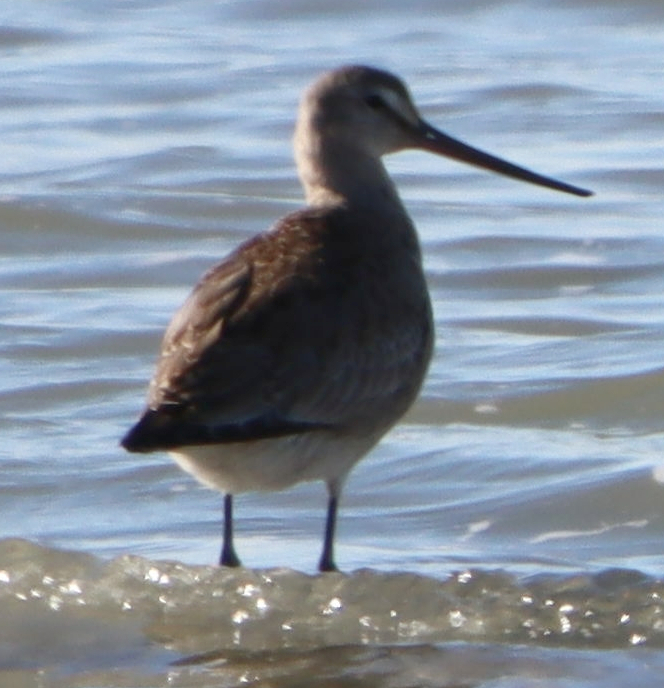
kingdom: Animalia
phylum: Chordata
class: Aves
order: Charadriiformes
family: Scolopacidae
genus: Limosa
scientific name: Limosa haemastica
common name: Hudsonian godwit
